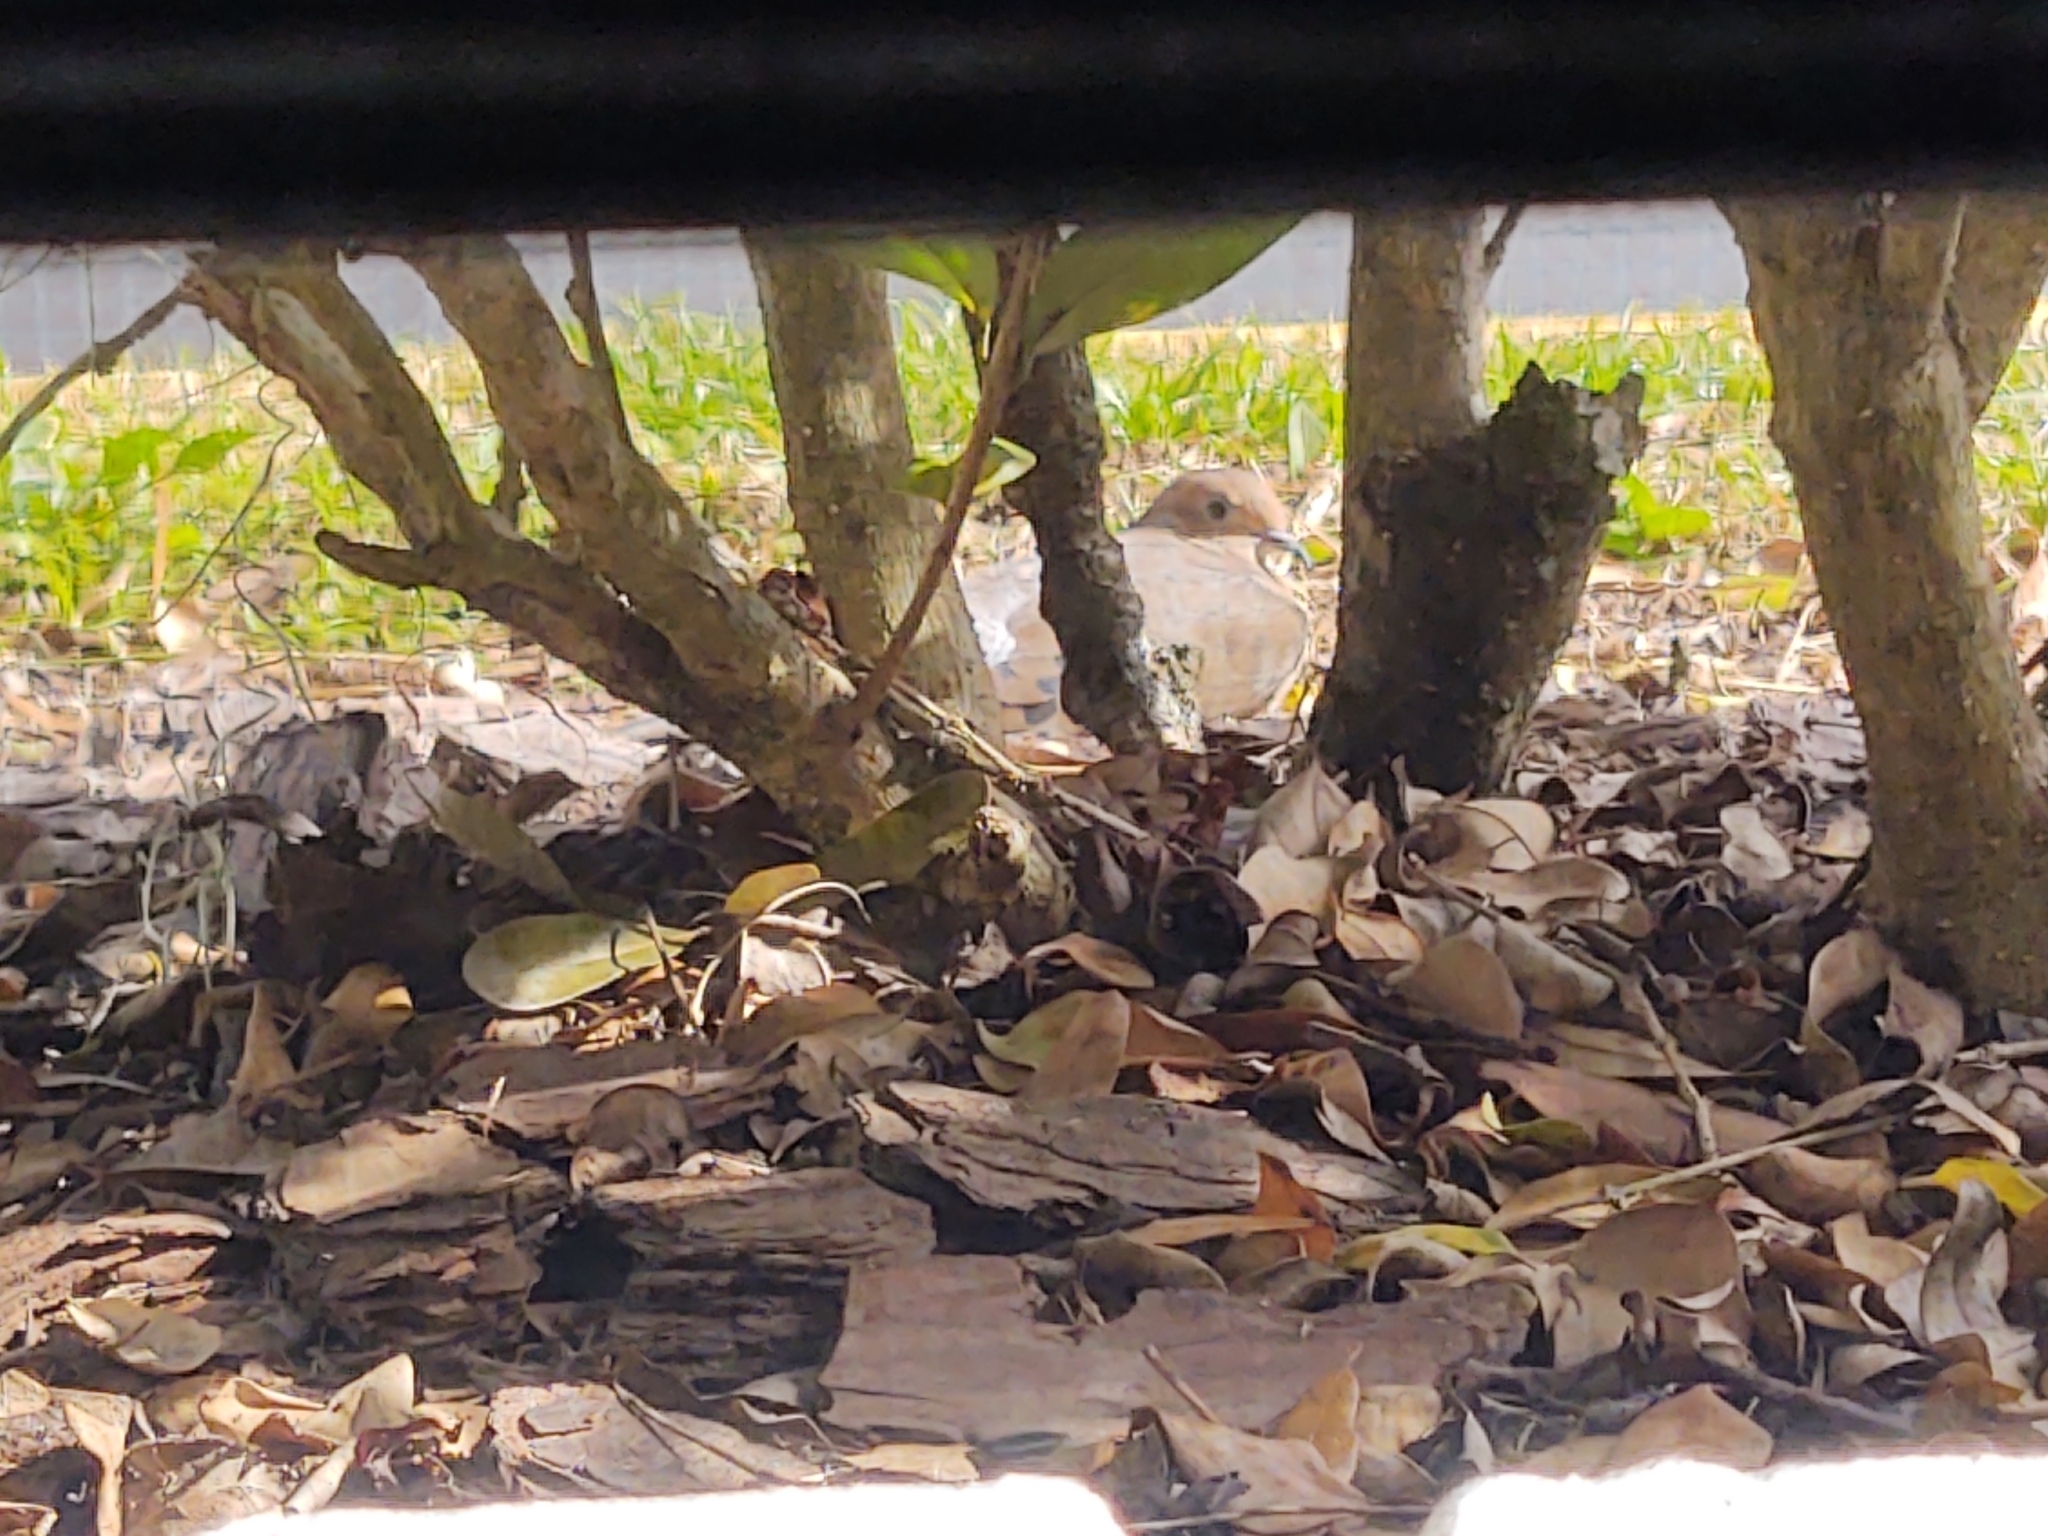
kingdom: Animalia
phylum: Chordata
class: Aves
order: Columbiformes
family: Columbidae
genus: Zenaida
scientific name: Zenaida macroura
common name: Mourning dove
